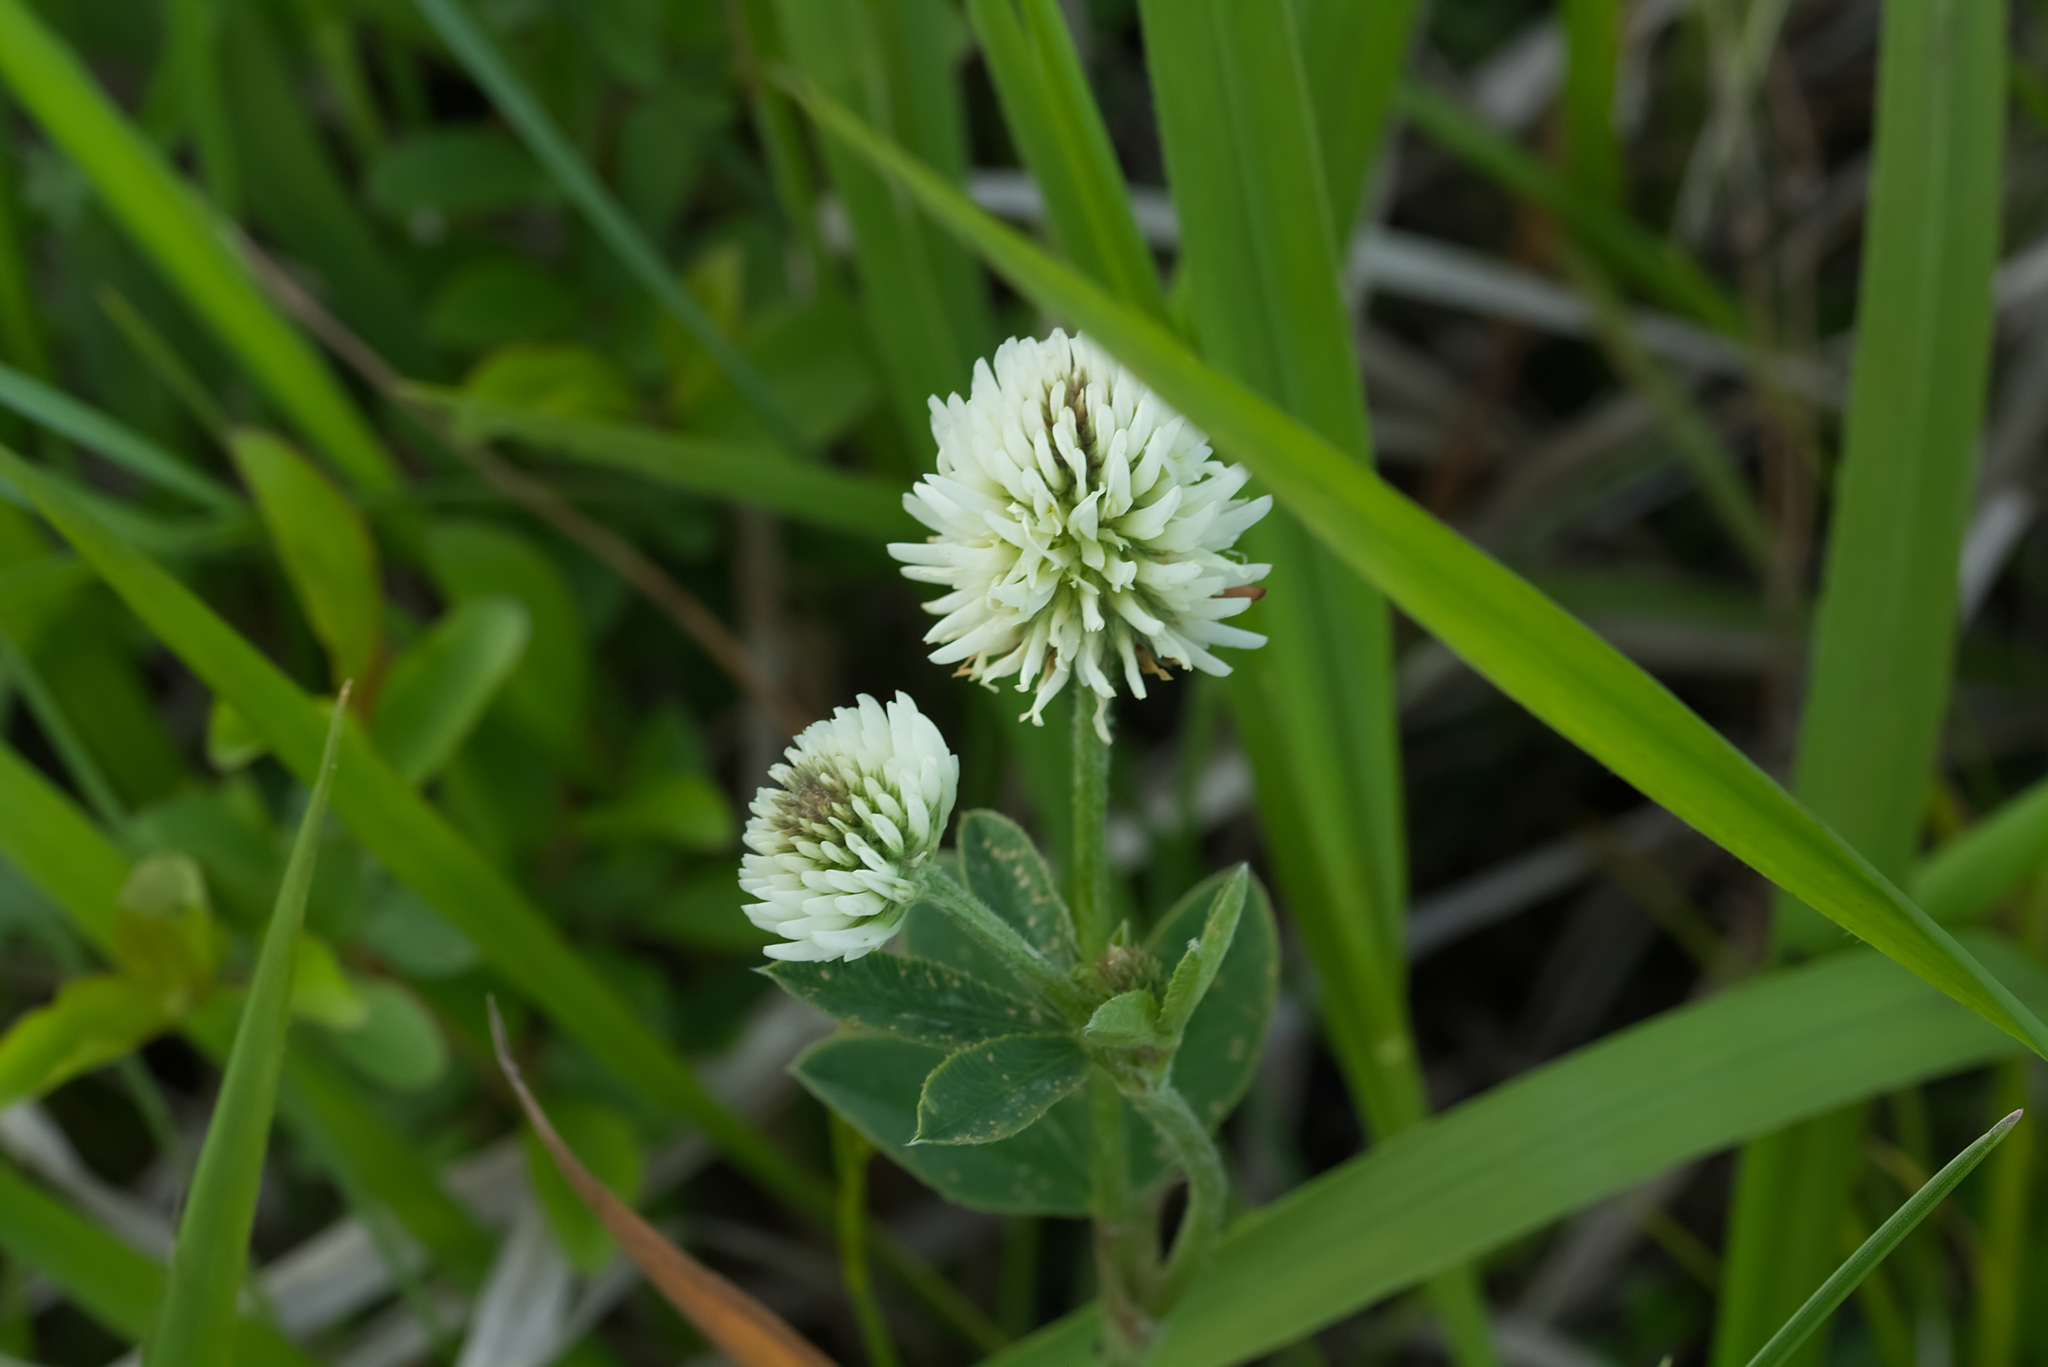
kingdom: Plantae
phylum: Tracheophyta
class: Magnoliopsida
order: Fabales
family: Fabaceae
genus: Trifolium
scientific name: Trifolium montanum
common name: Mountain clover
